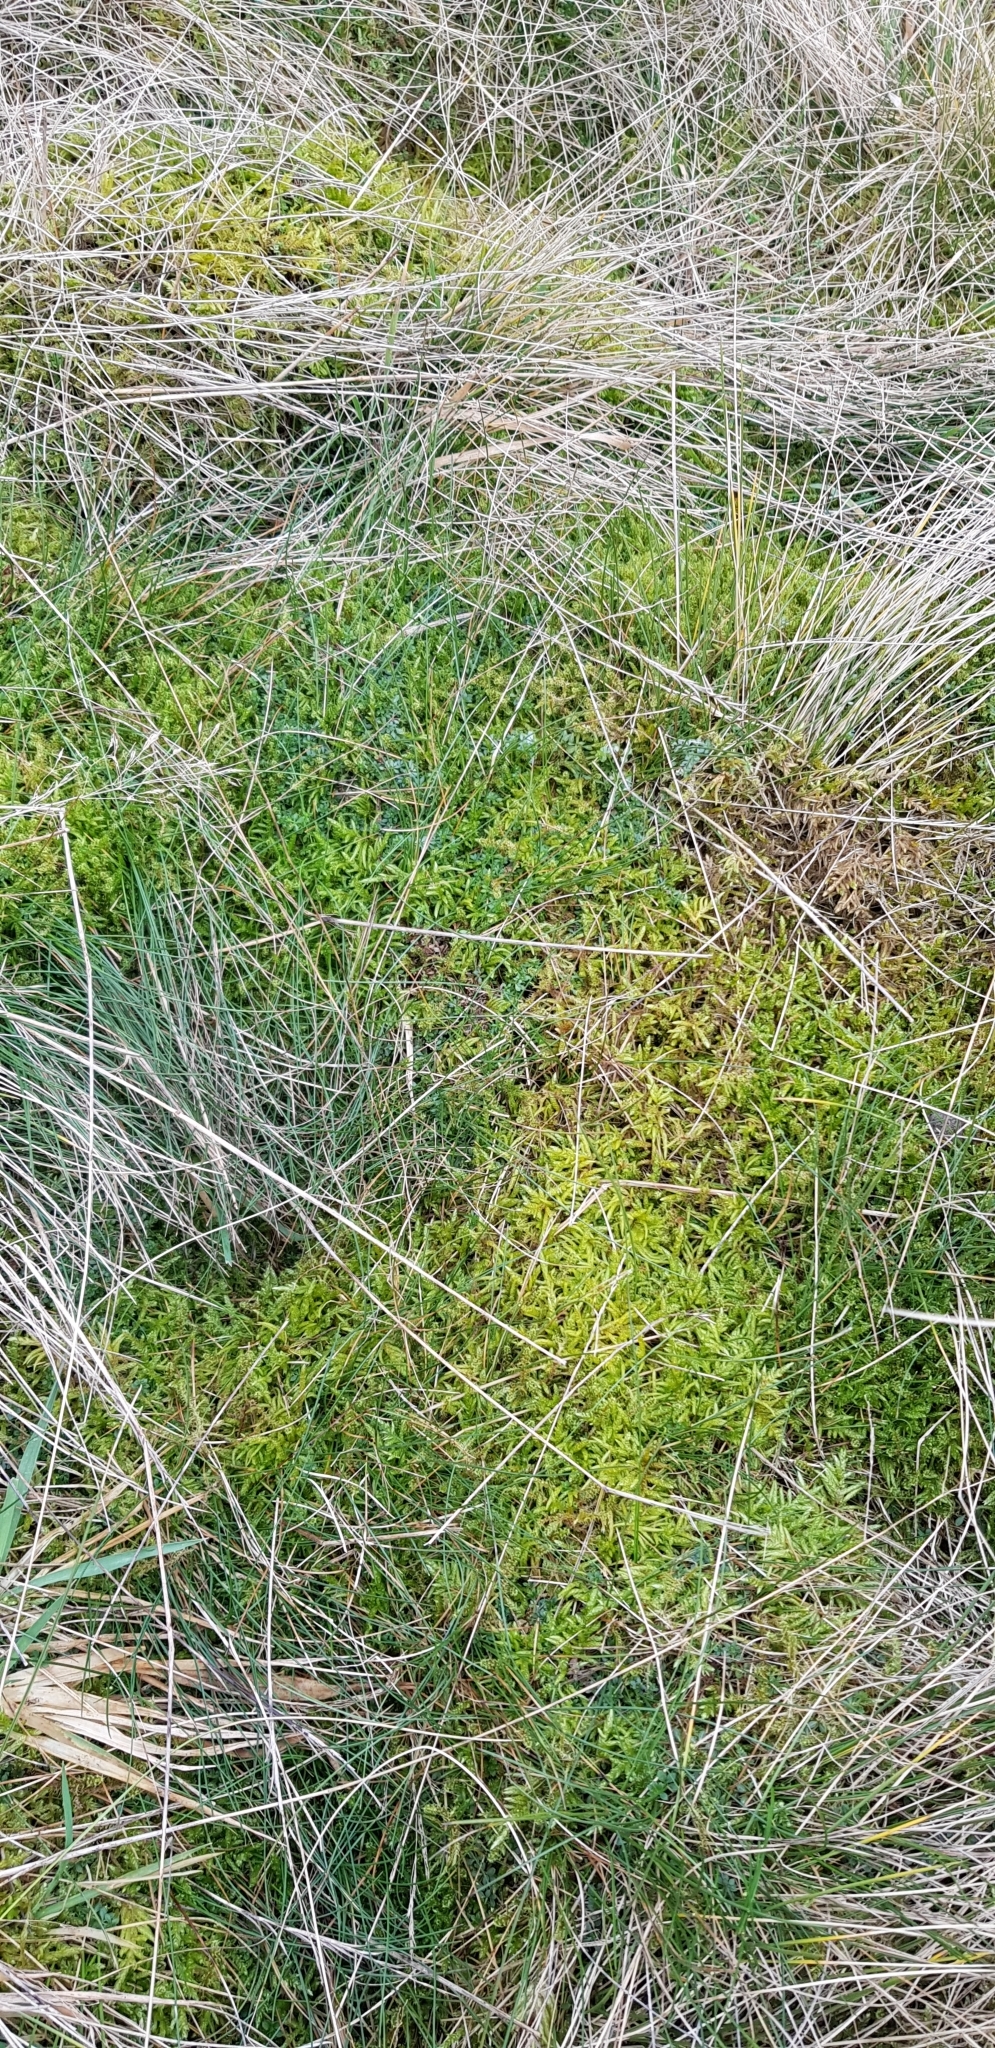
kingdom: Plantae
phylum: Bryophyta
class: Bryopsida
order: Hypnales
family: Brachytheciaceae
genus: Pseudoscleropodium
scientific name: Pseudoscleropodium purum
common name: Neat feather-moss
